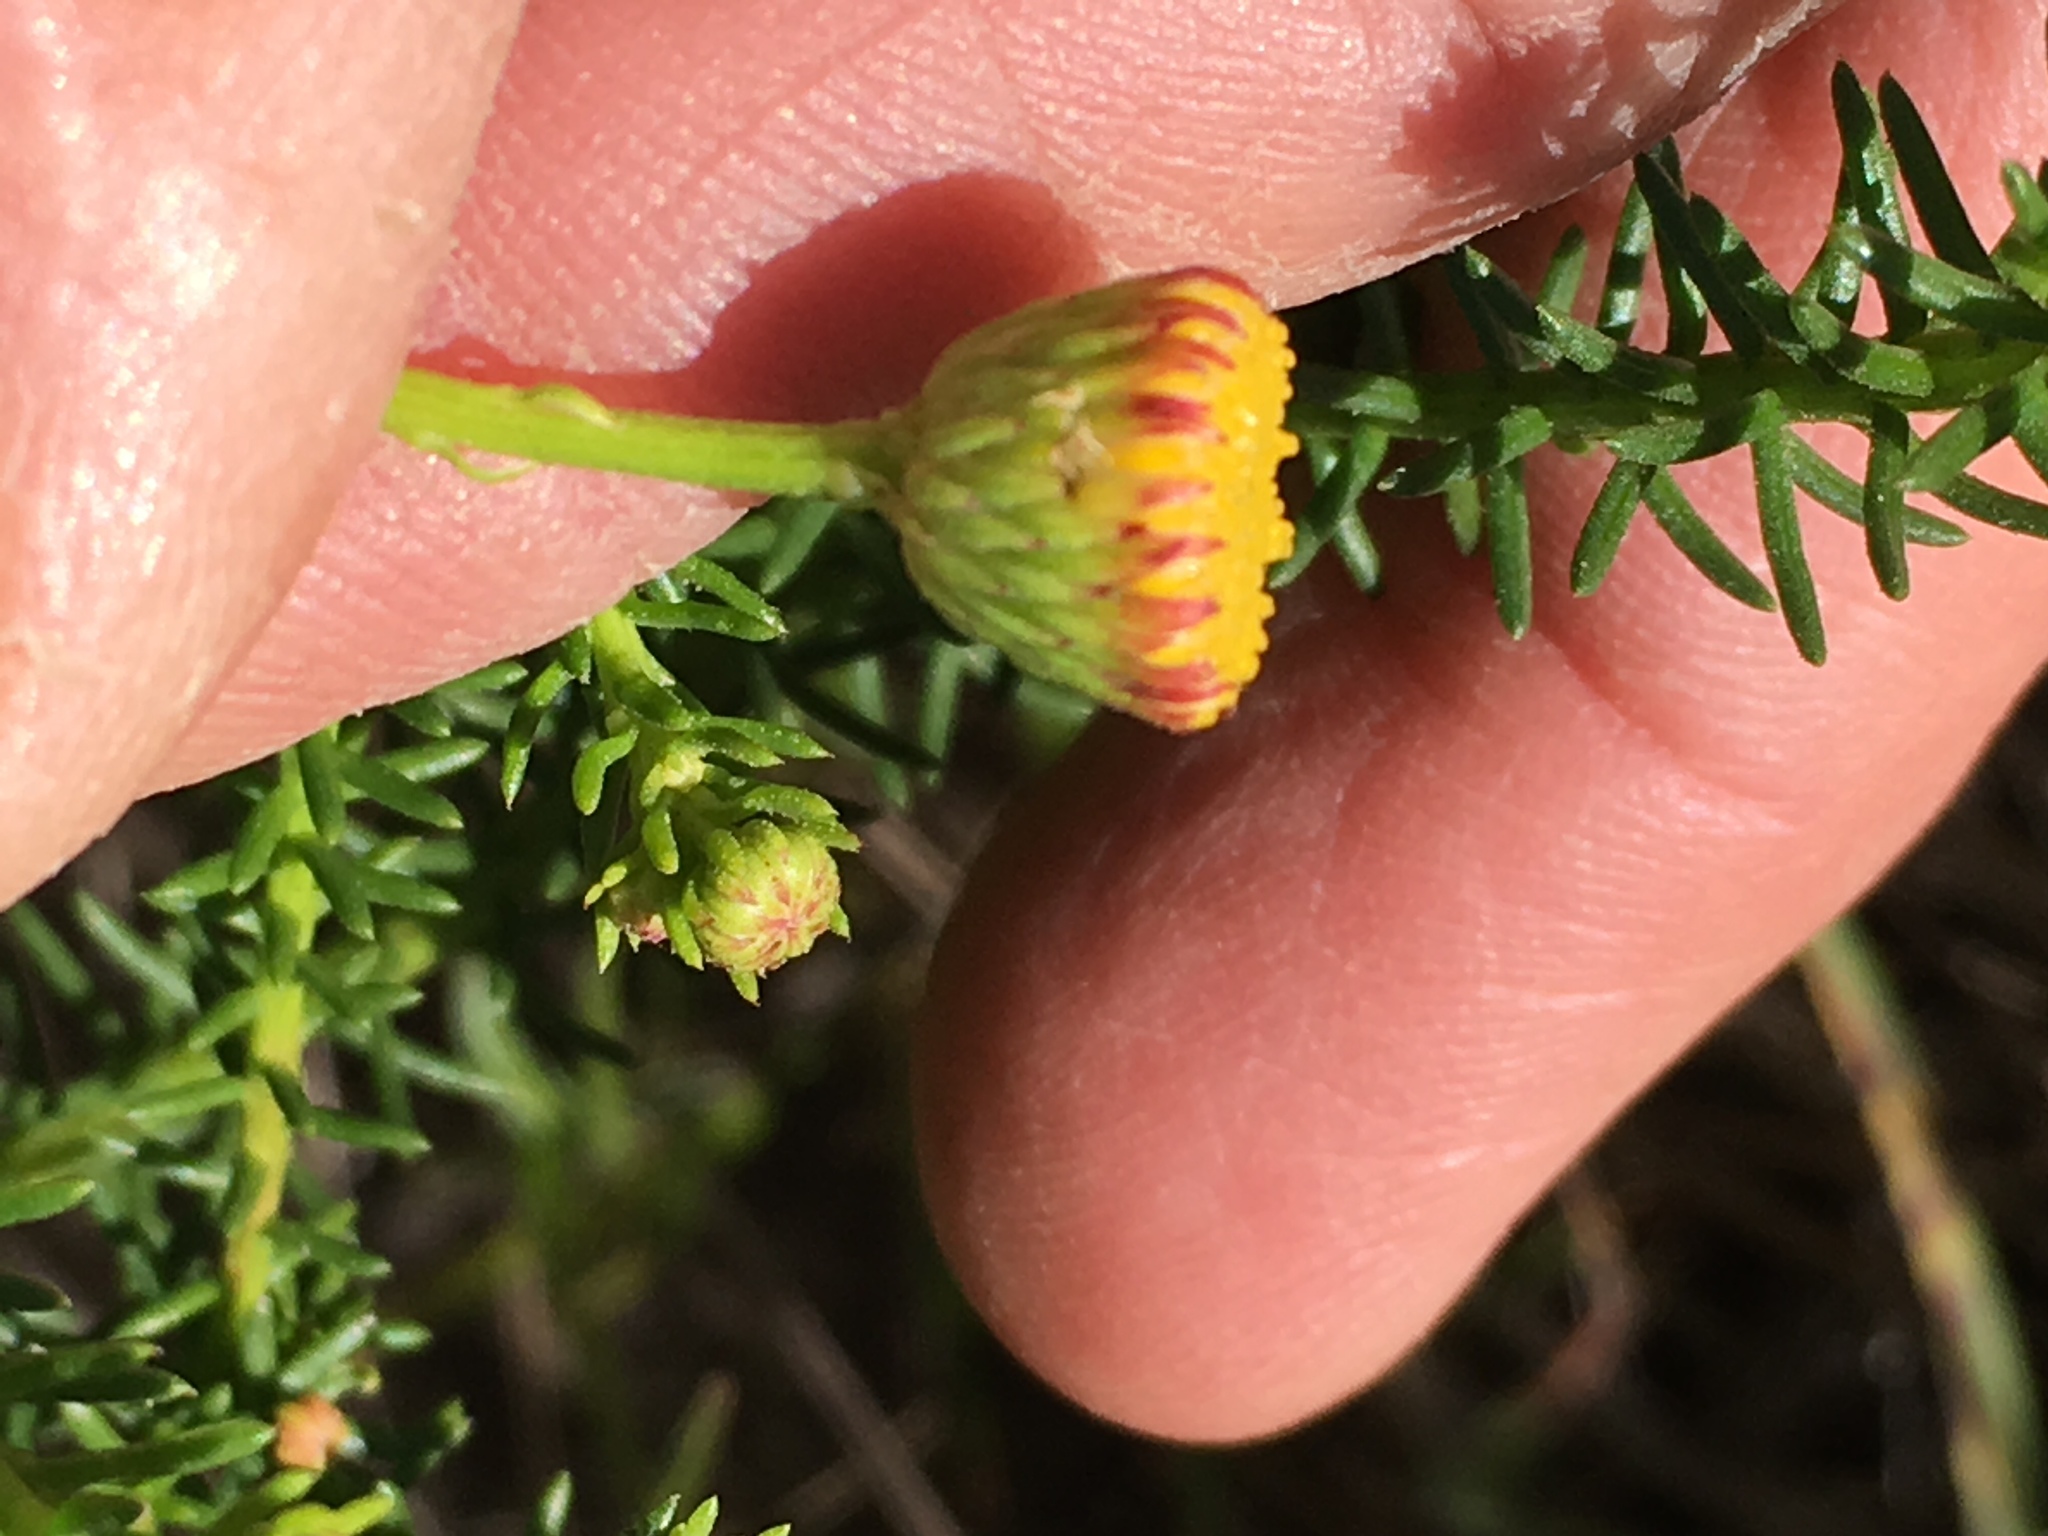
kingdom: Plantae
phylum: Tracheophyta
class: Magnoliopsida
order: Asterales
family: Asteraceae
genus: Chrysocoma
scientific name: Chrysocoma cernua
